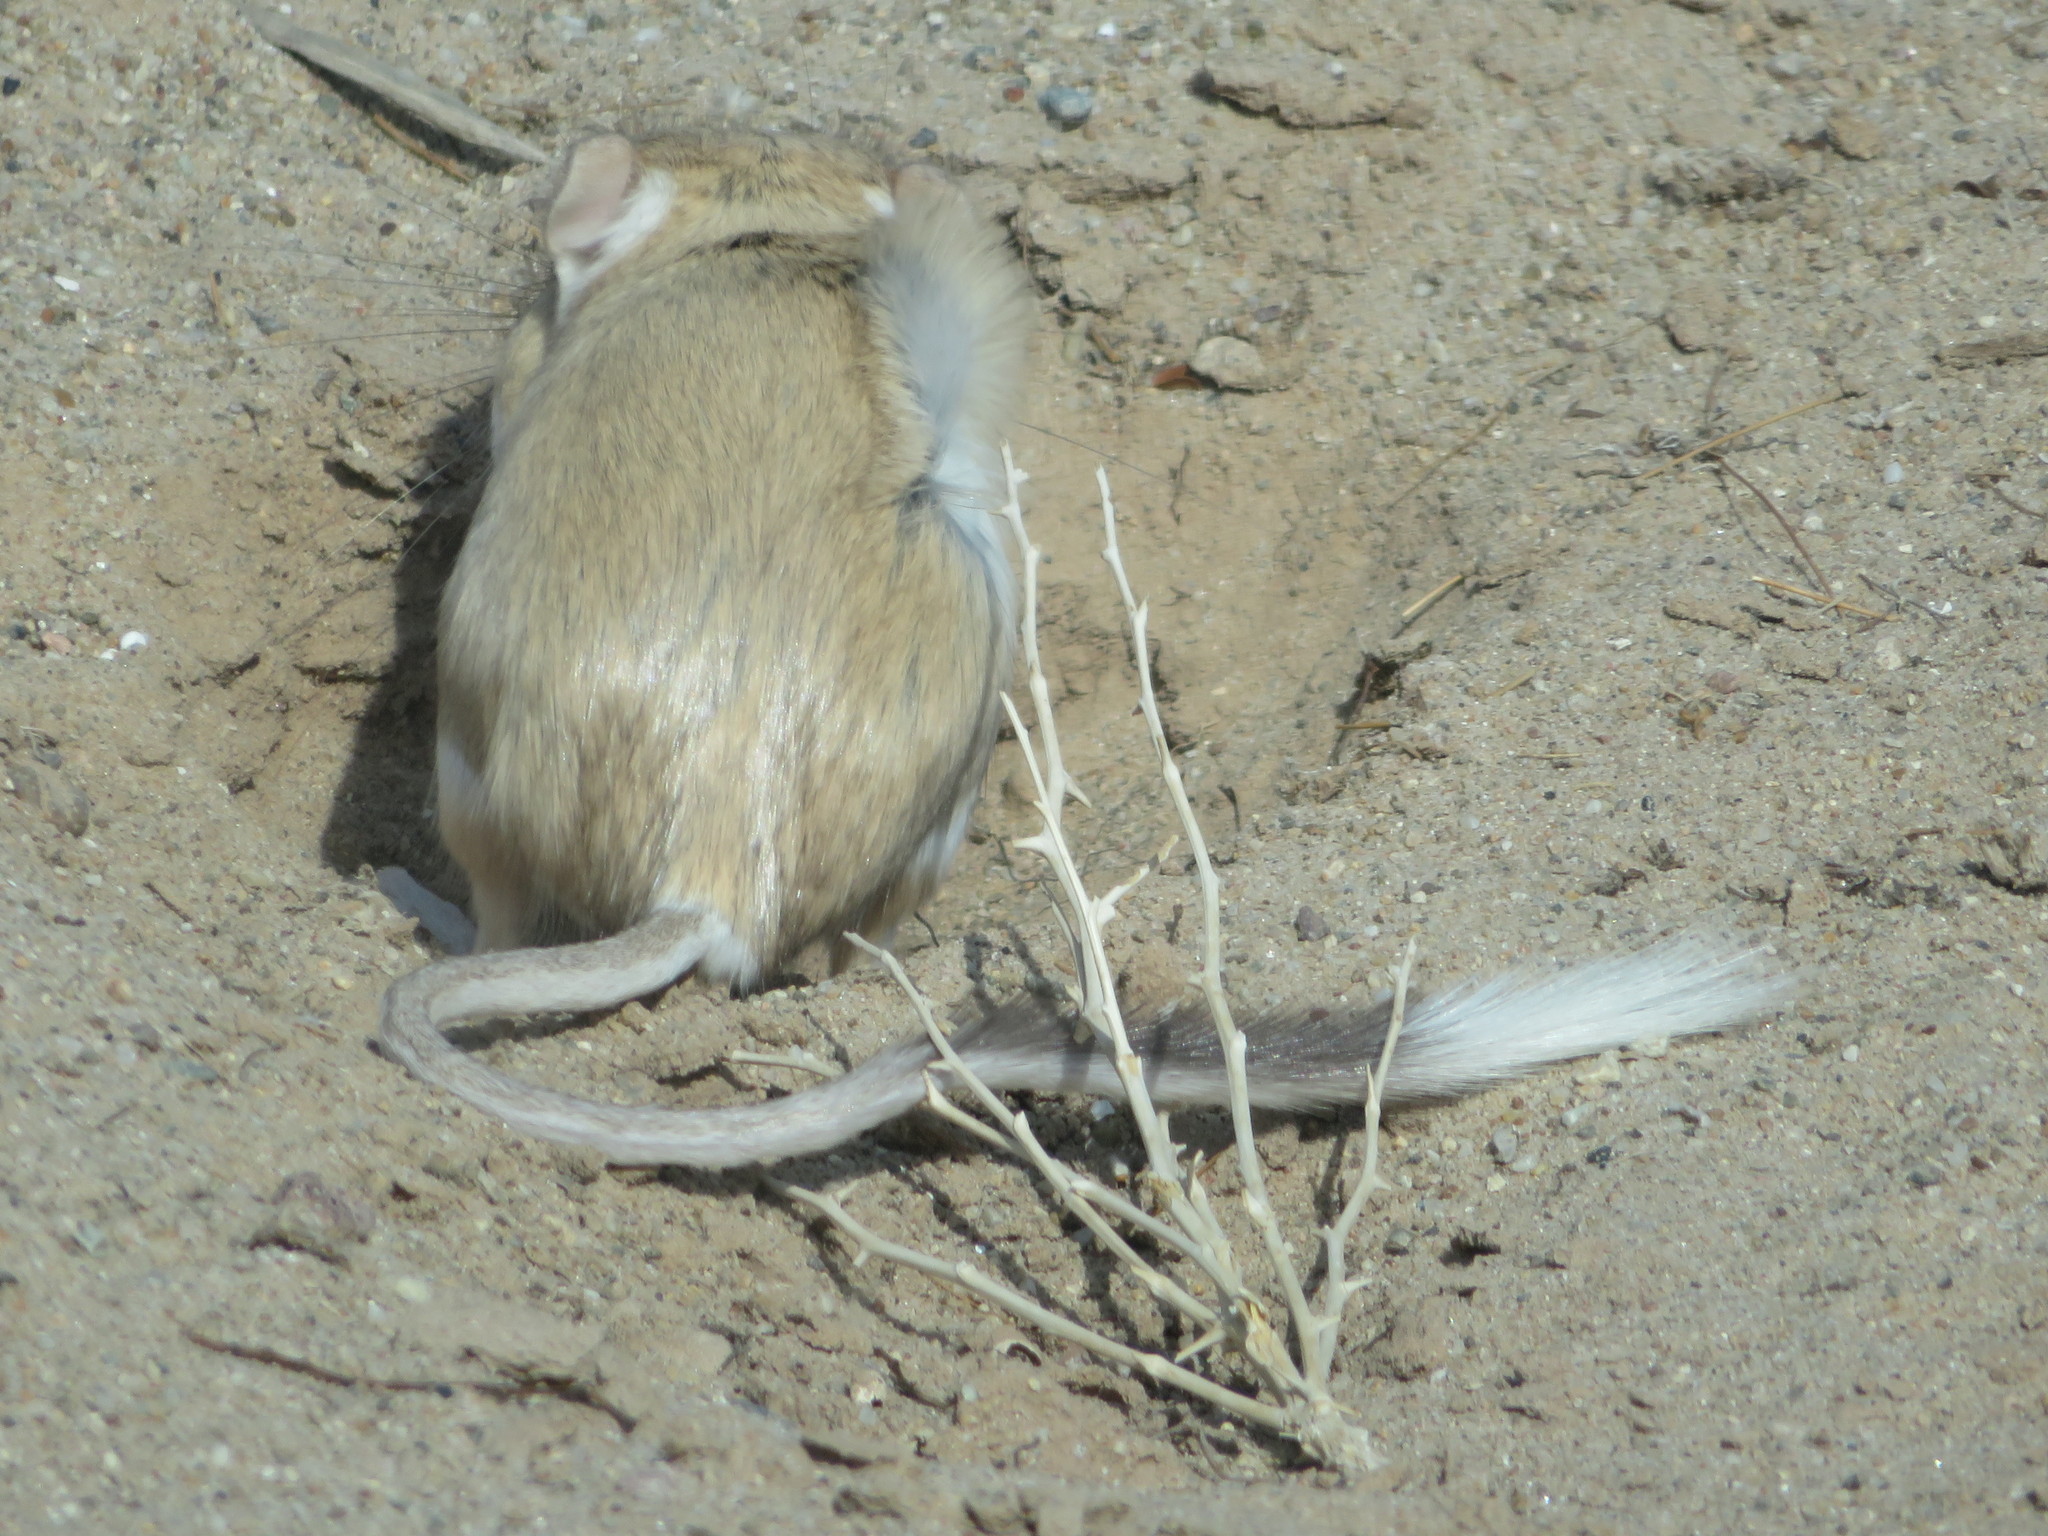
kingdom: Animalia
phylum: Chordata
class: Mammalia
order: Rodentia
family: Heteromyidae
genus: Dipodomys
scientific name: Dipodomys deserti
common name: Desert kangaroo rat
